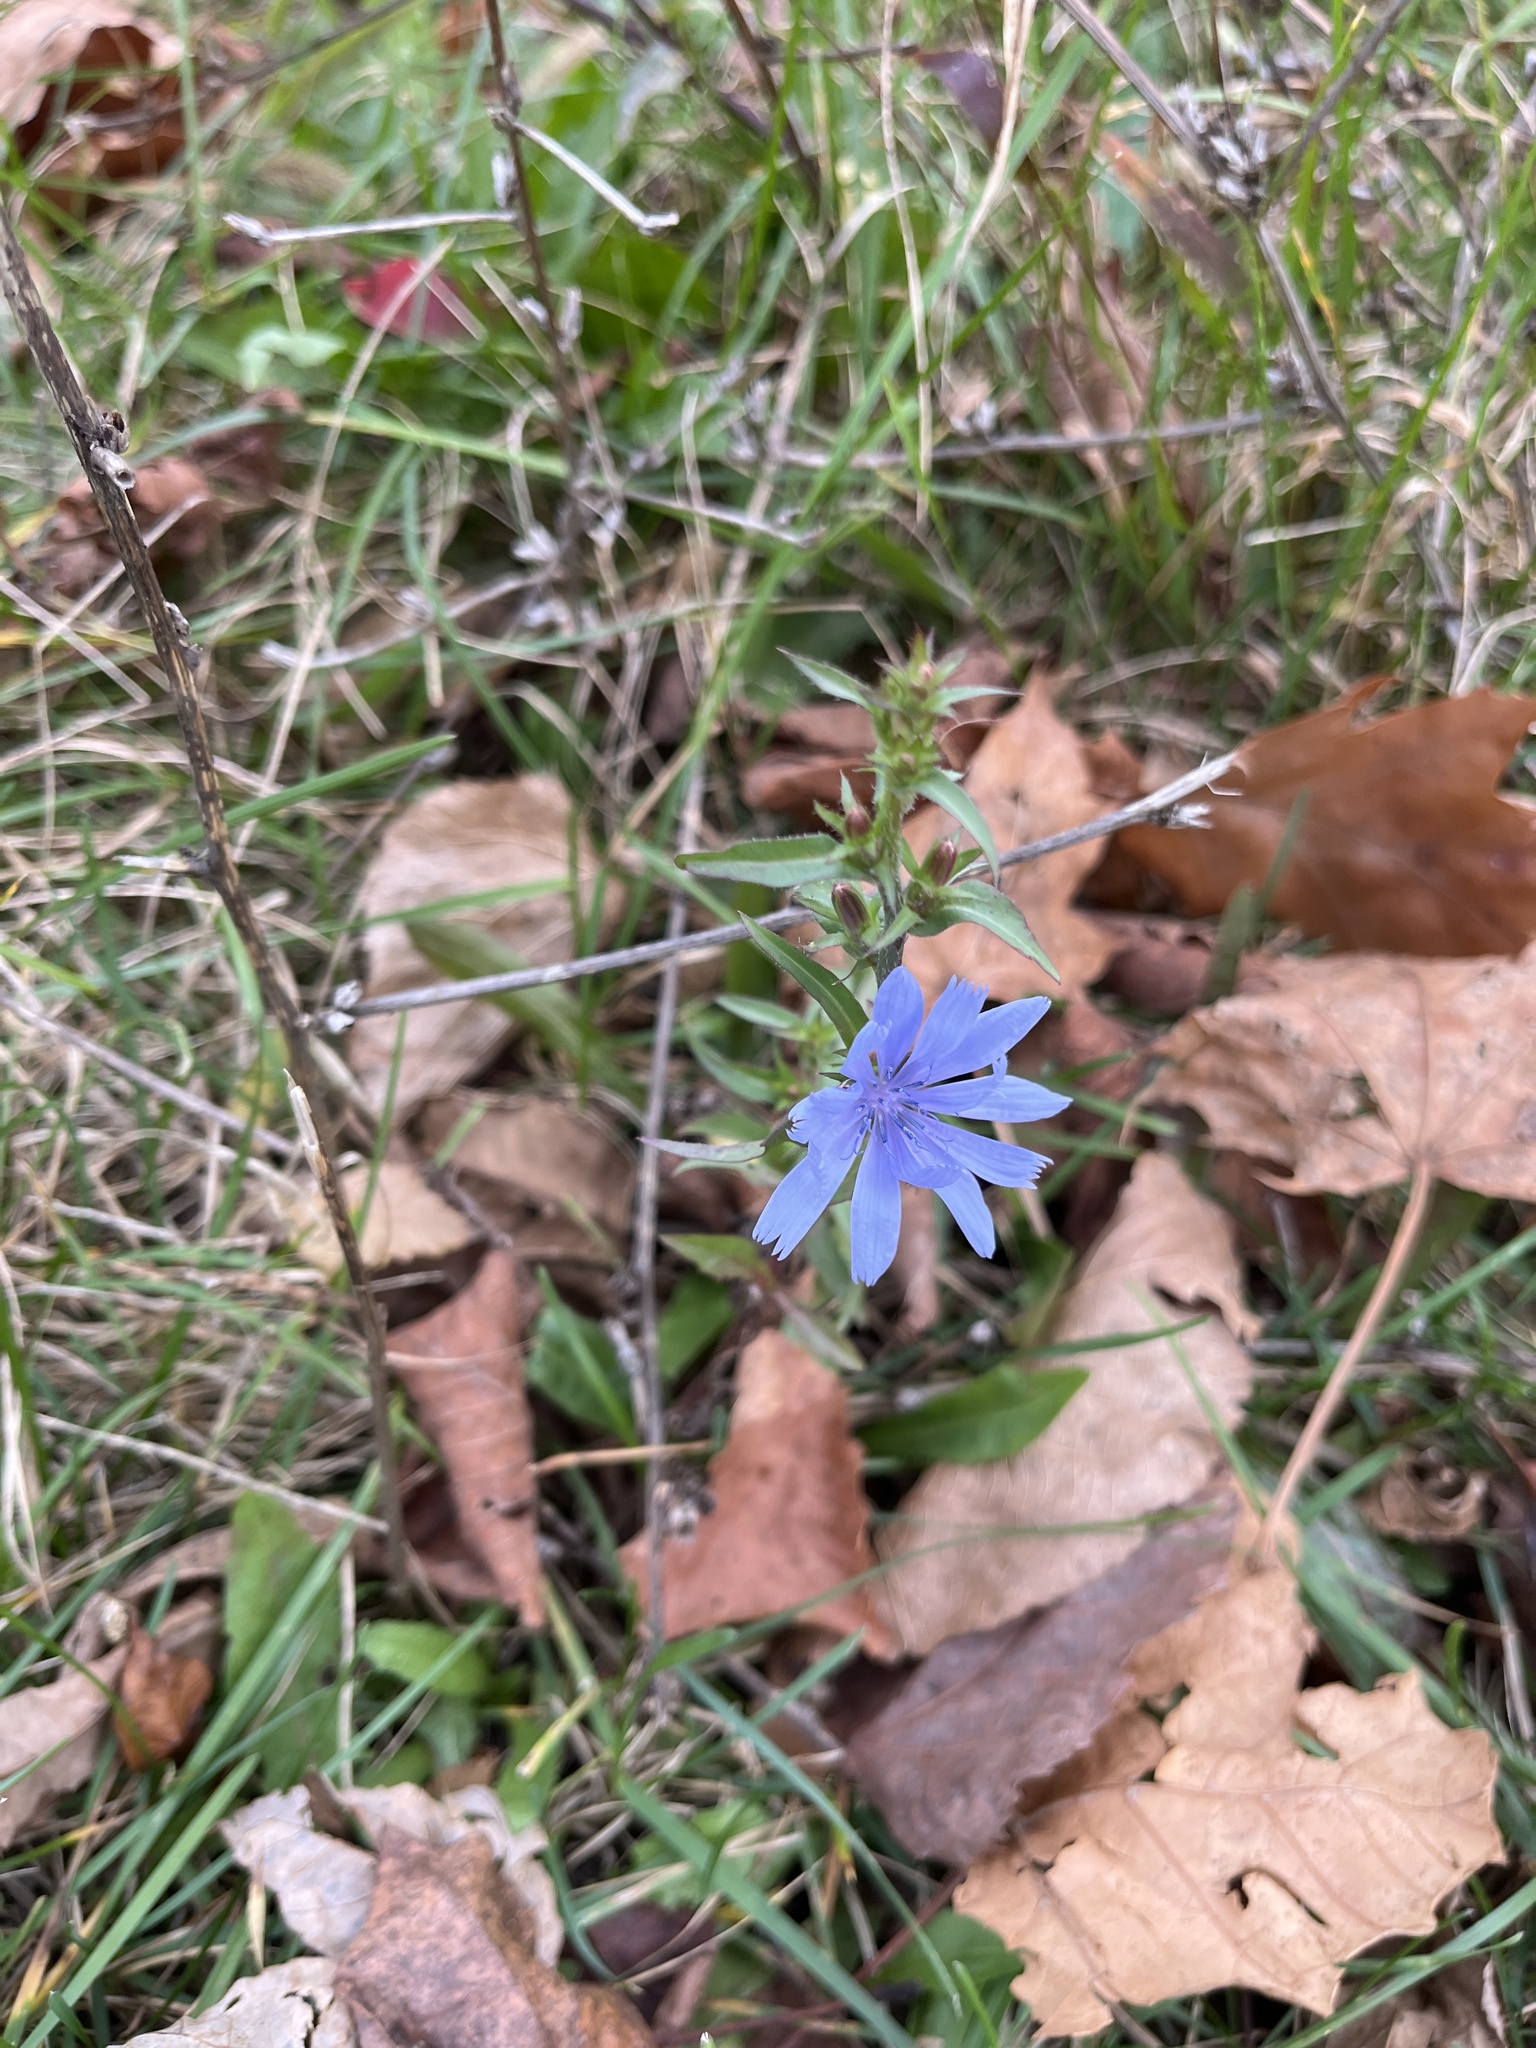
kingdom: Plantae
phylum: Tracheophyta
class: Magnoliopsida
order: Asterales
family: Asteraceae
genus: Cichorium
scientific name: Cichorium intybus
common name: Chicory
